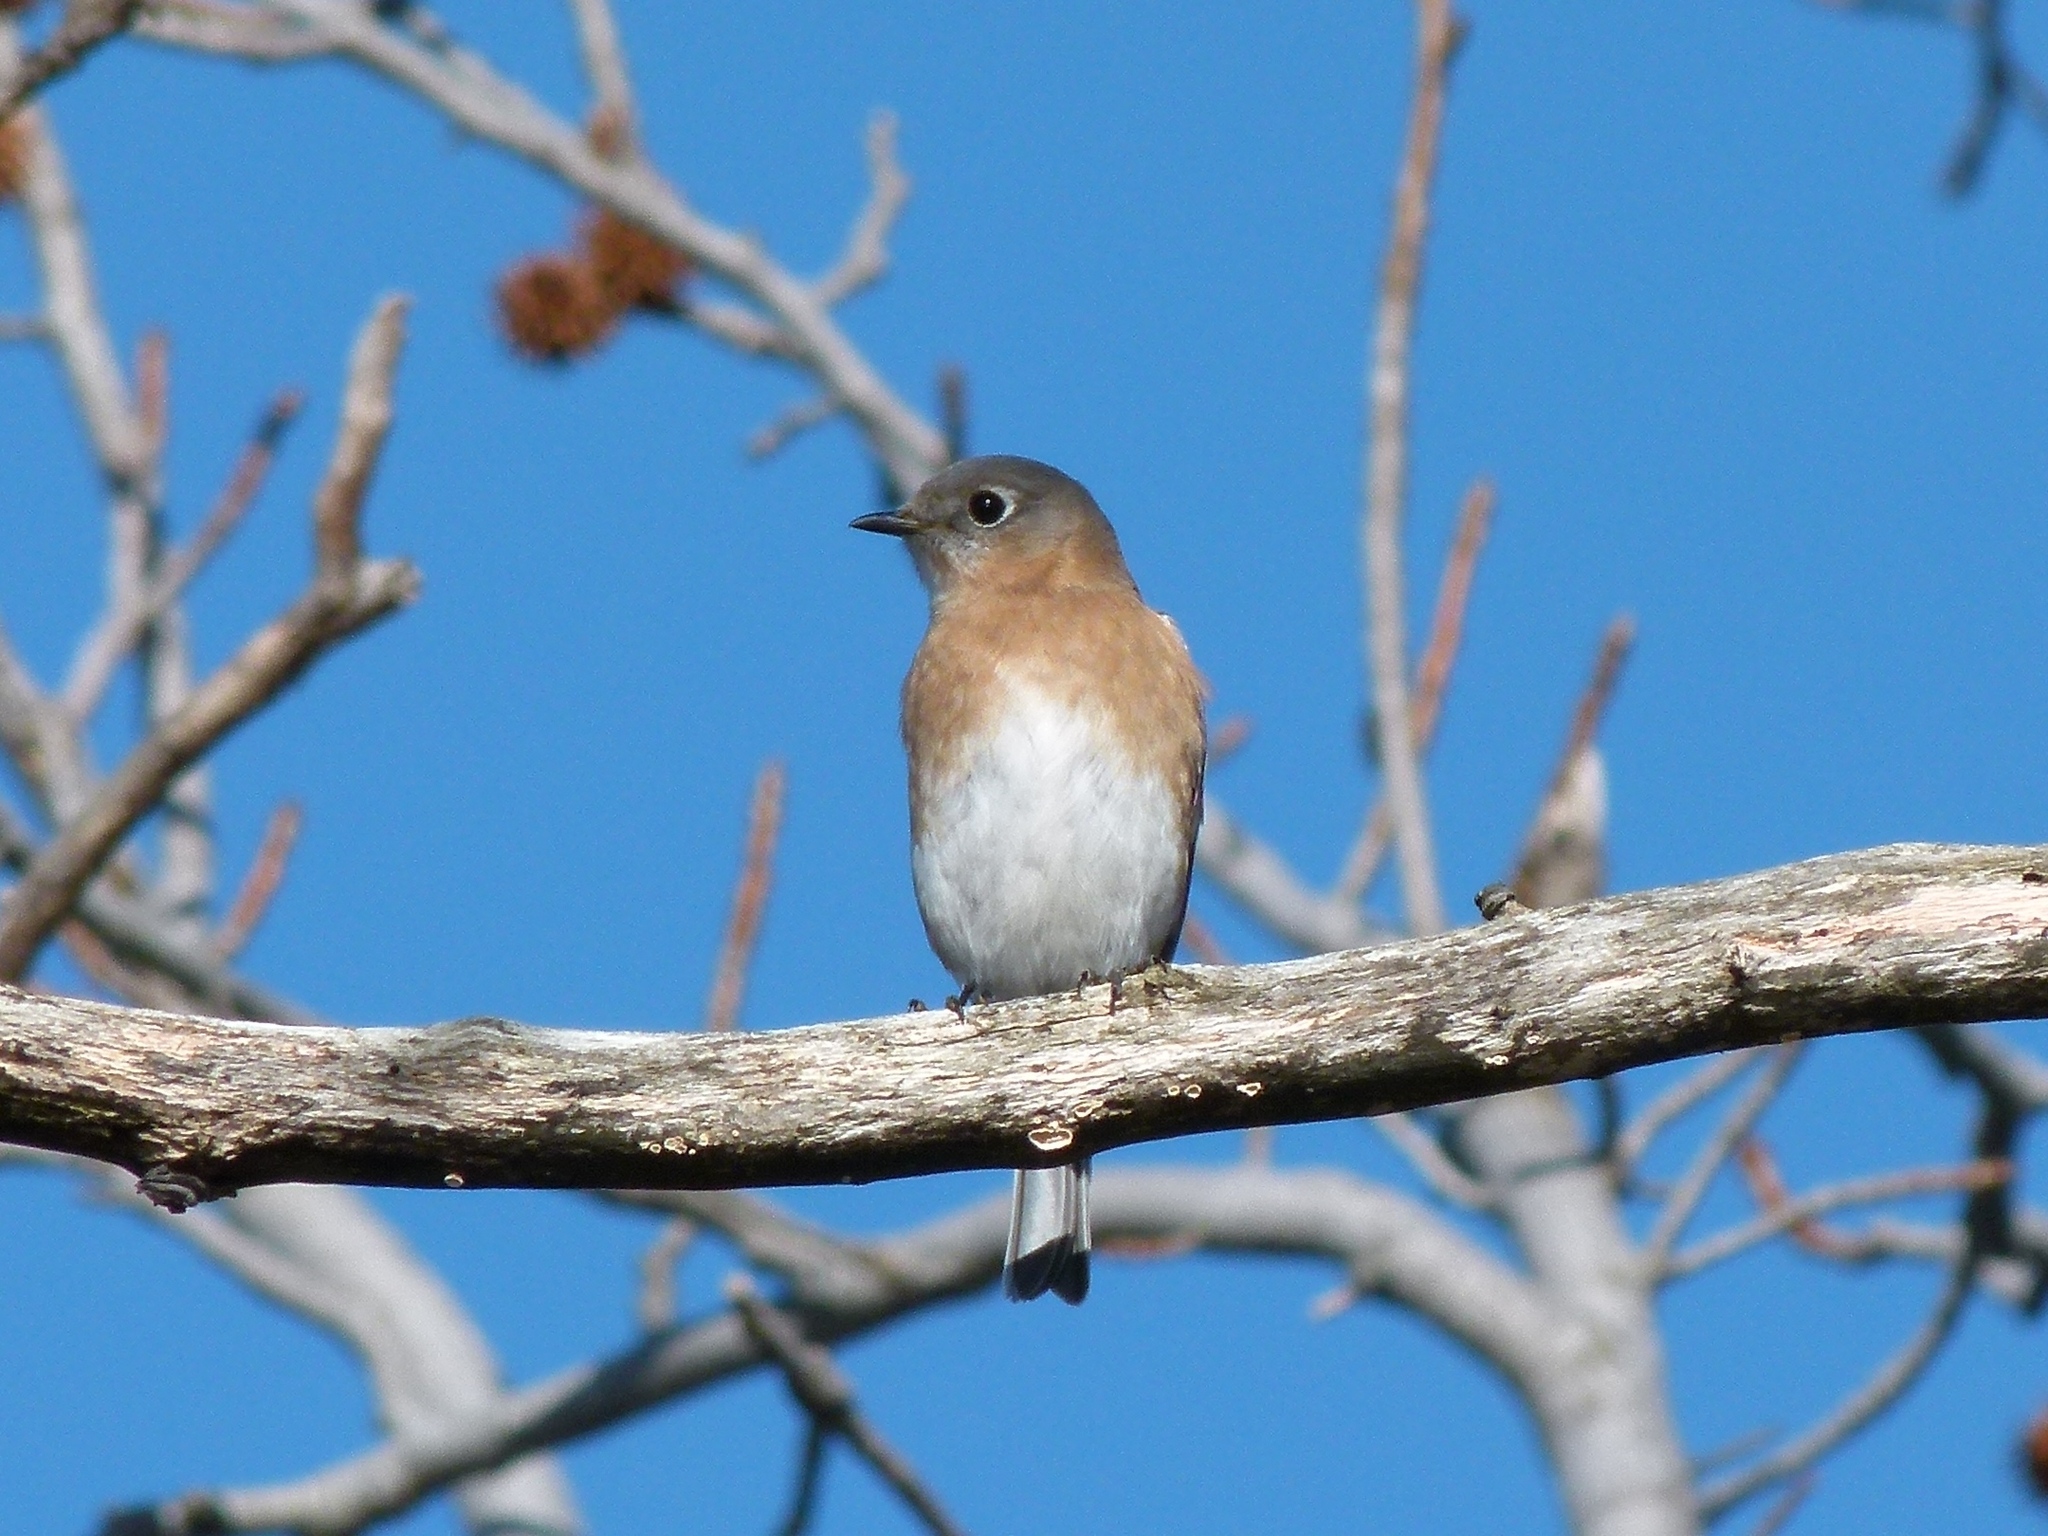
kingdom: Animalia
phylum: Chordata
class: Aves
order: Passeriformes
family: Turdidae
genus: Sialia
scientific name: Sialia sialis
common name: Eastern bluebird
